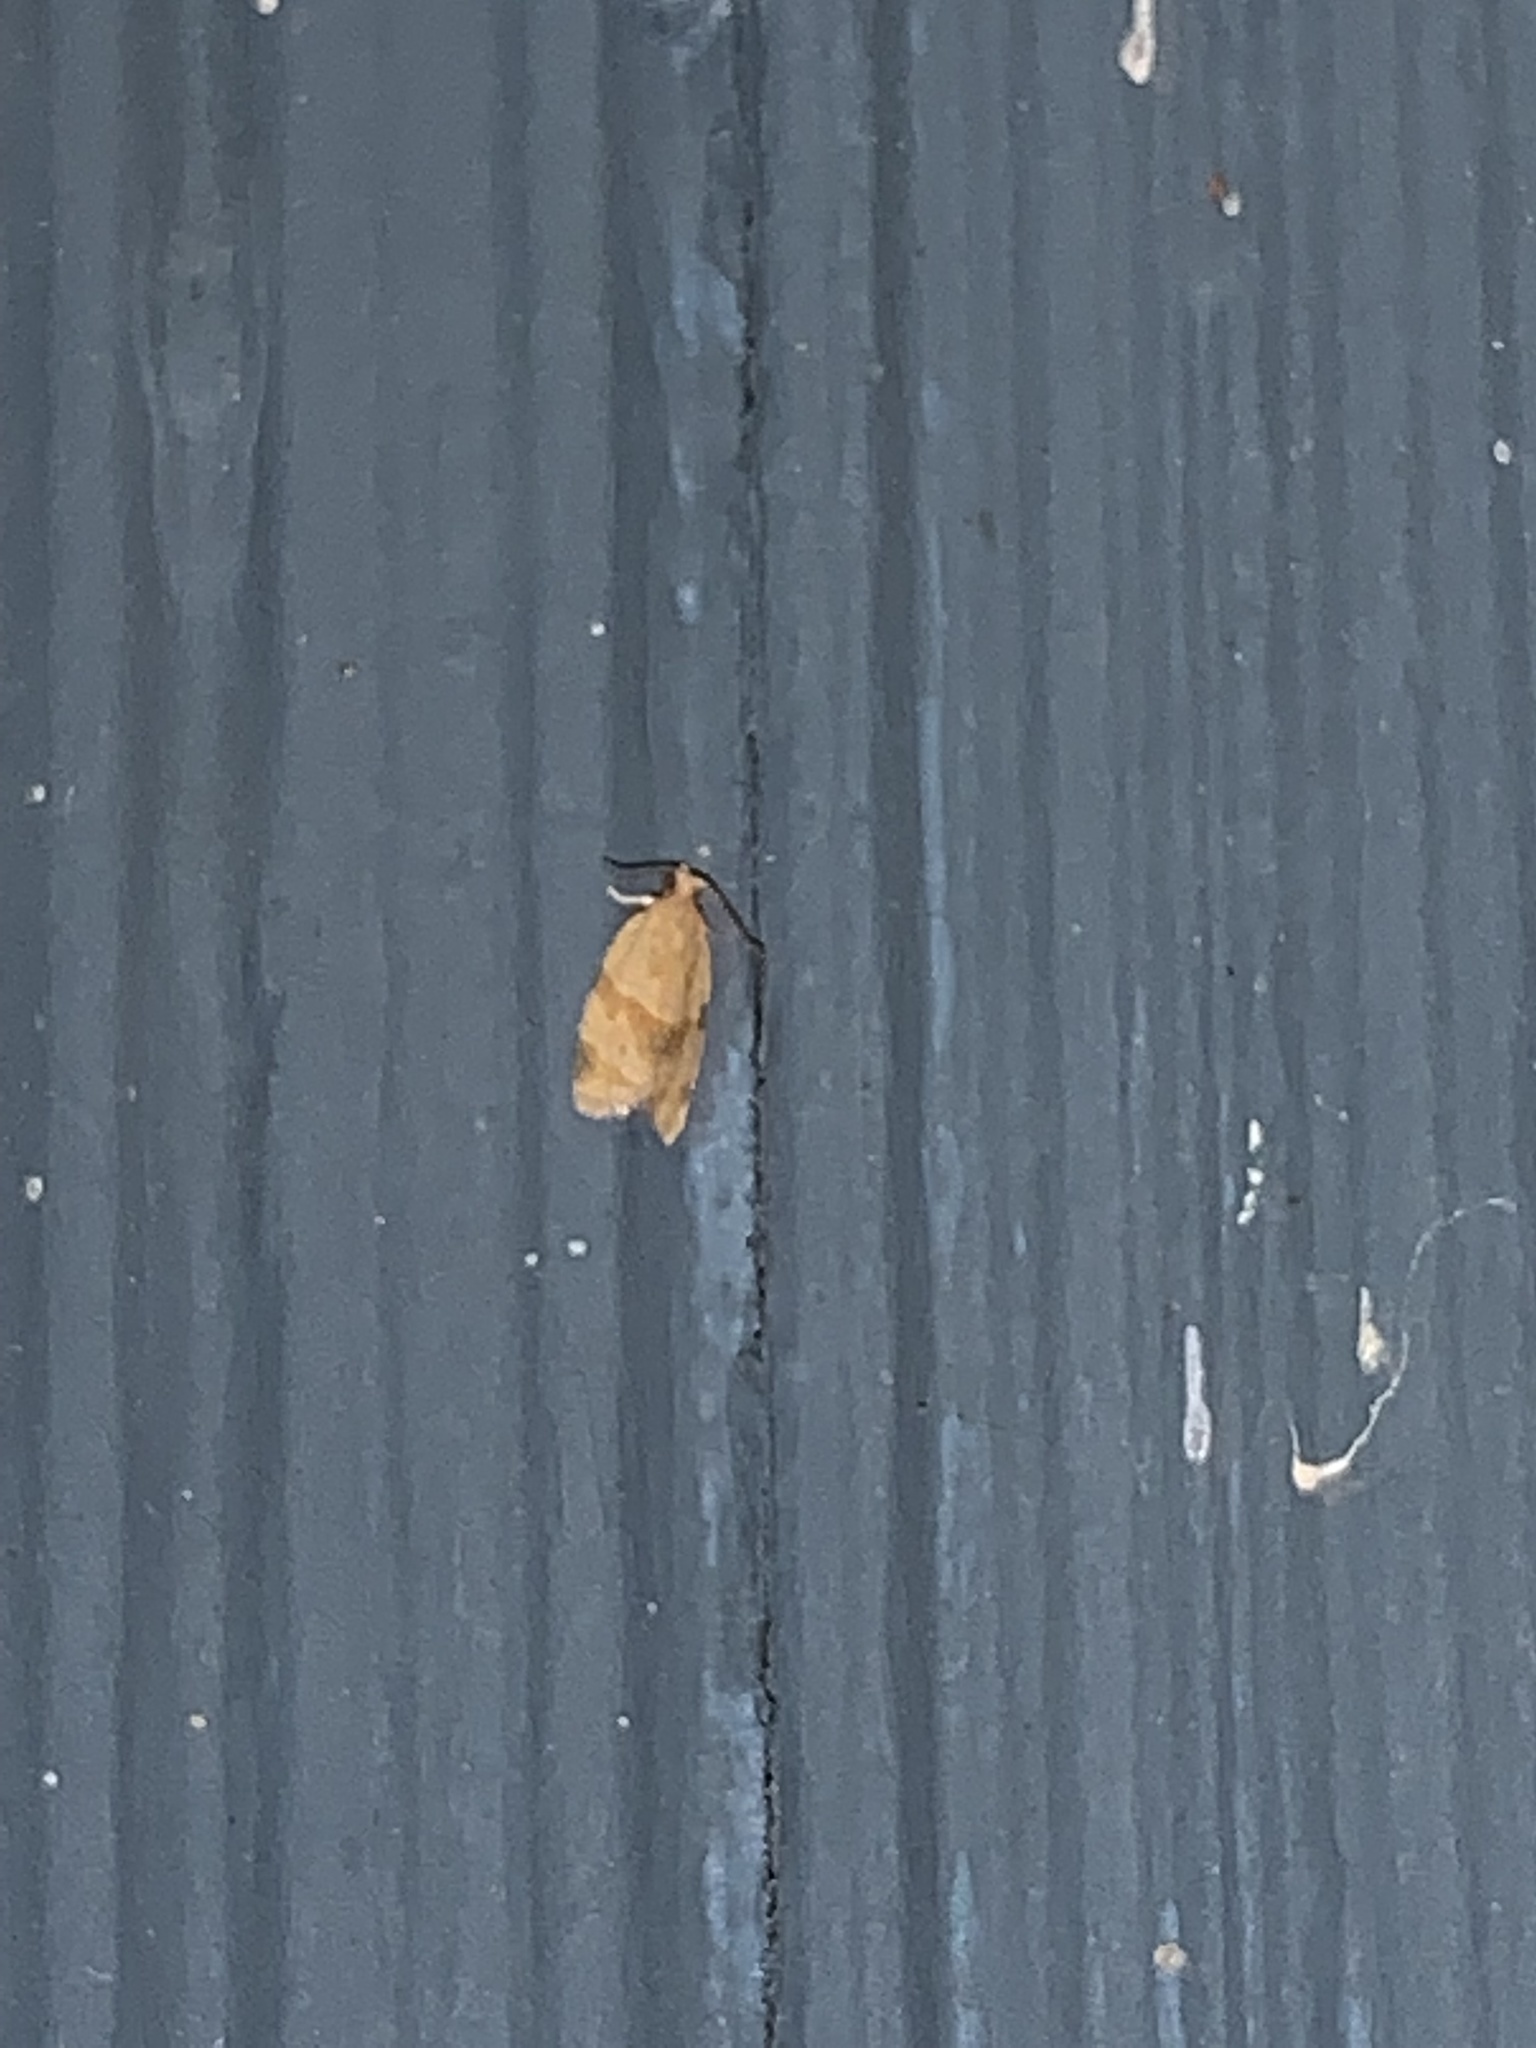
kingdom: Animalia
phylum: Arthropoda
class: Insecta
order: Lepidoptera
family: Tortricidae
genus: Clepsis
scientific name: Clepsis peritana
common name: Garden tortrix
